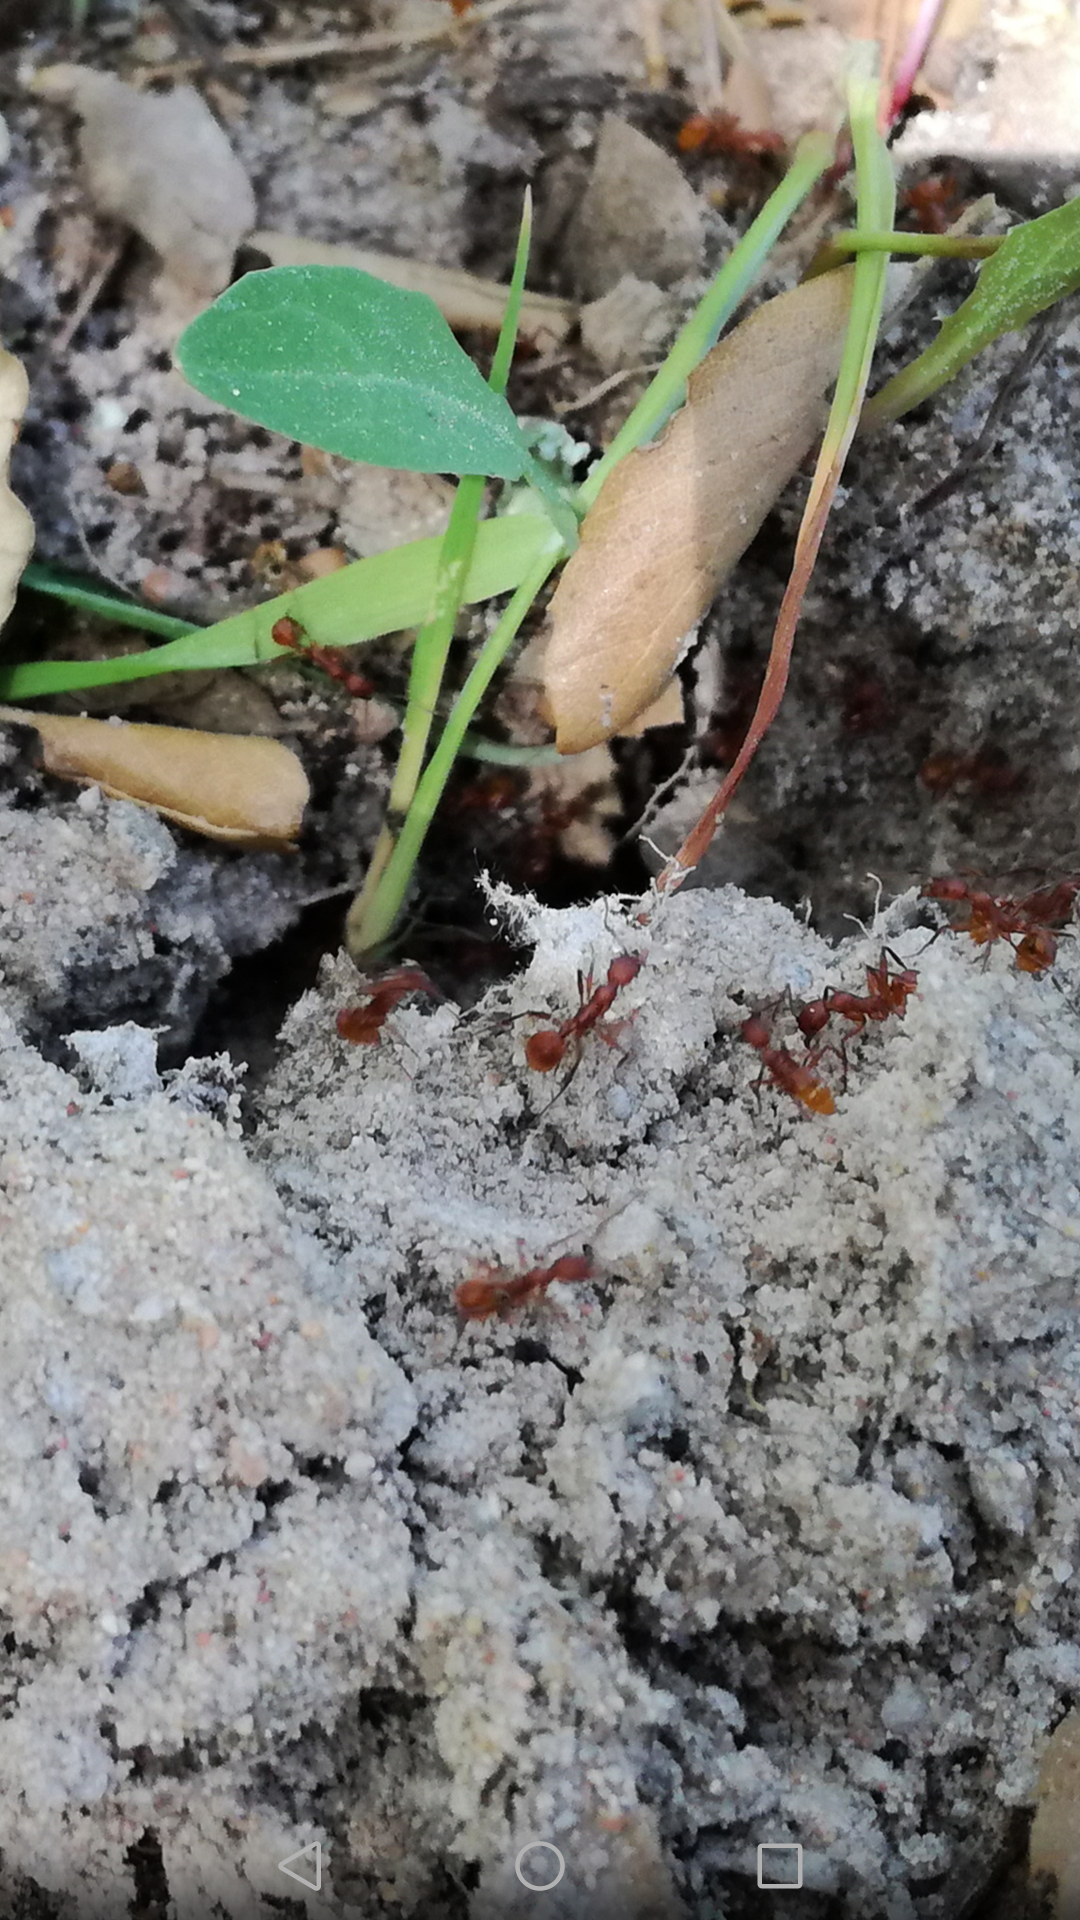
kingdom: Animalia
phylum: Arthropoda
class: Insecta
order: Hymenoptera
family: Formicidae
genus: Aphaenogaster
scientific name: Aphaenogaster sardoa
